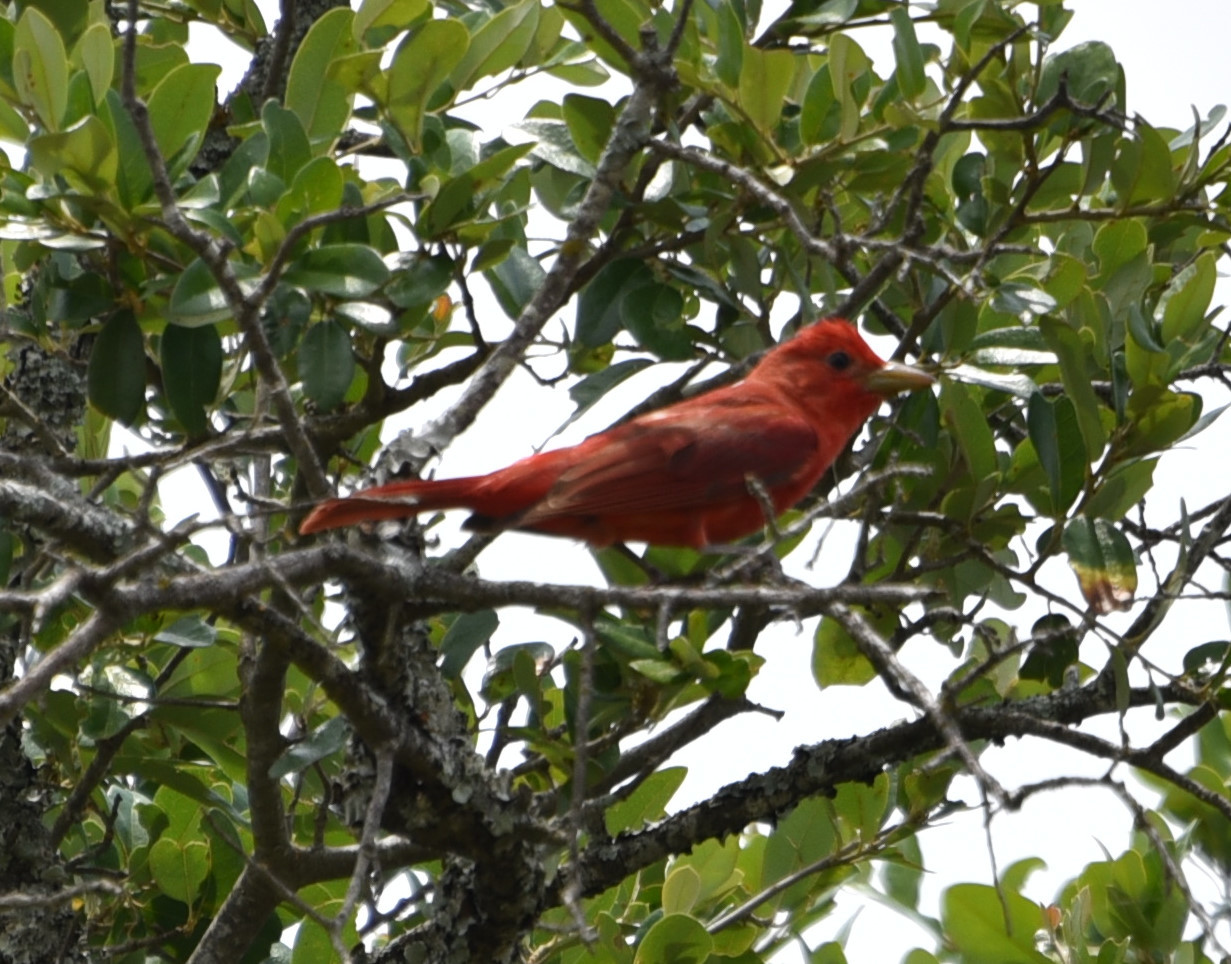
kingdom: Animalia
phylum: Chordata
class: Aves
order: Passeriformes
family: Cardinalidae
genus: Piranga
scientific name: Piranga rubra
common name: Summer tanager
